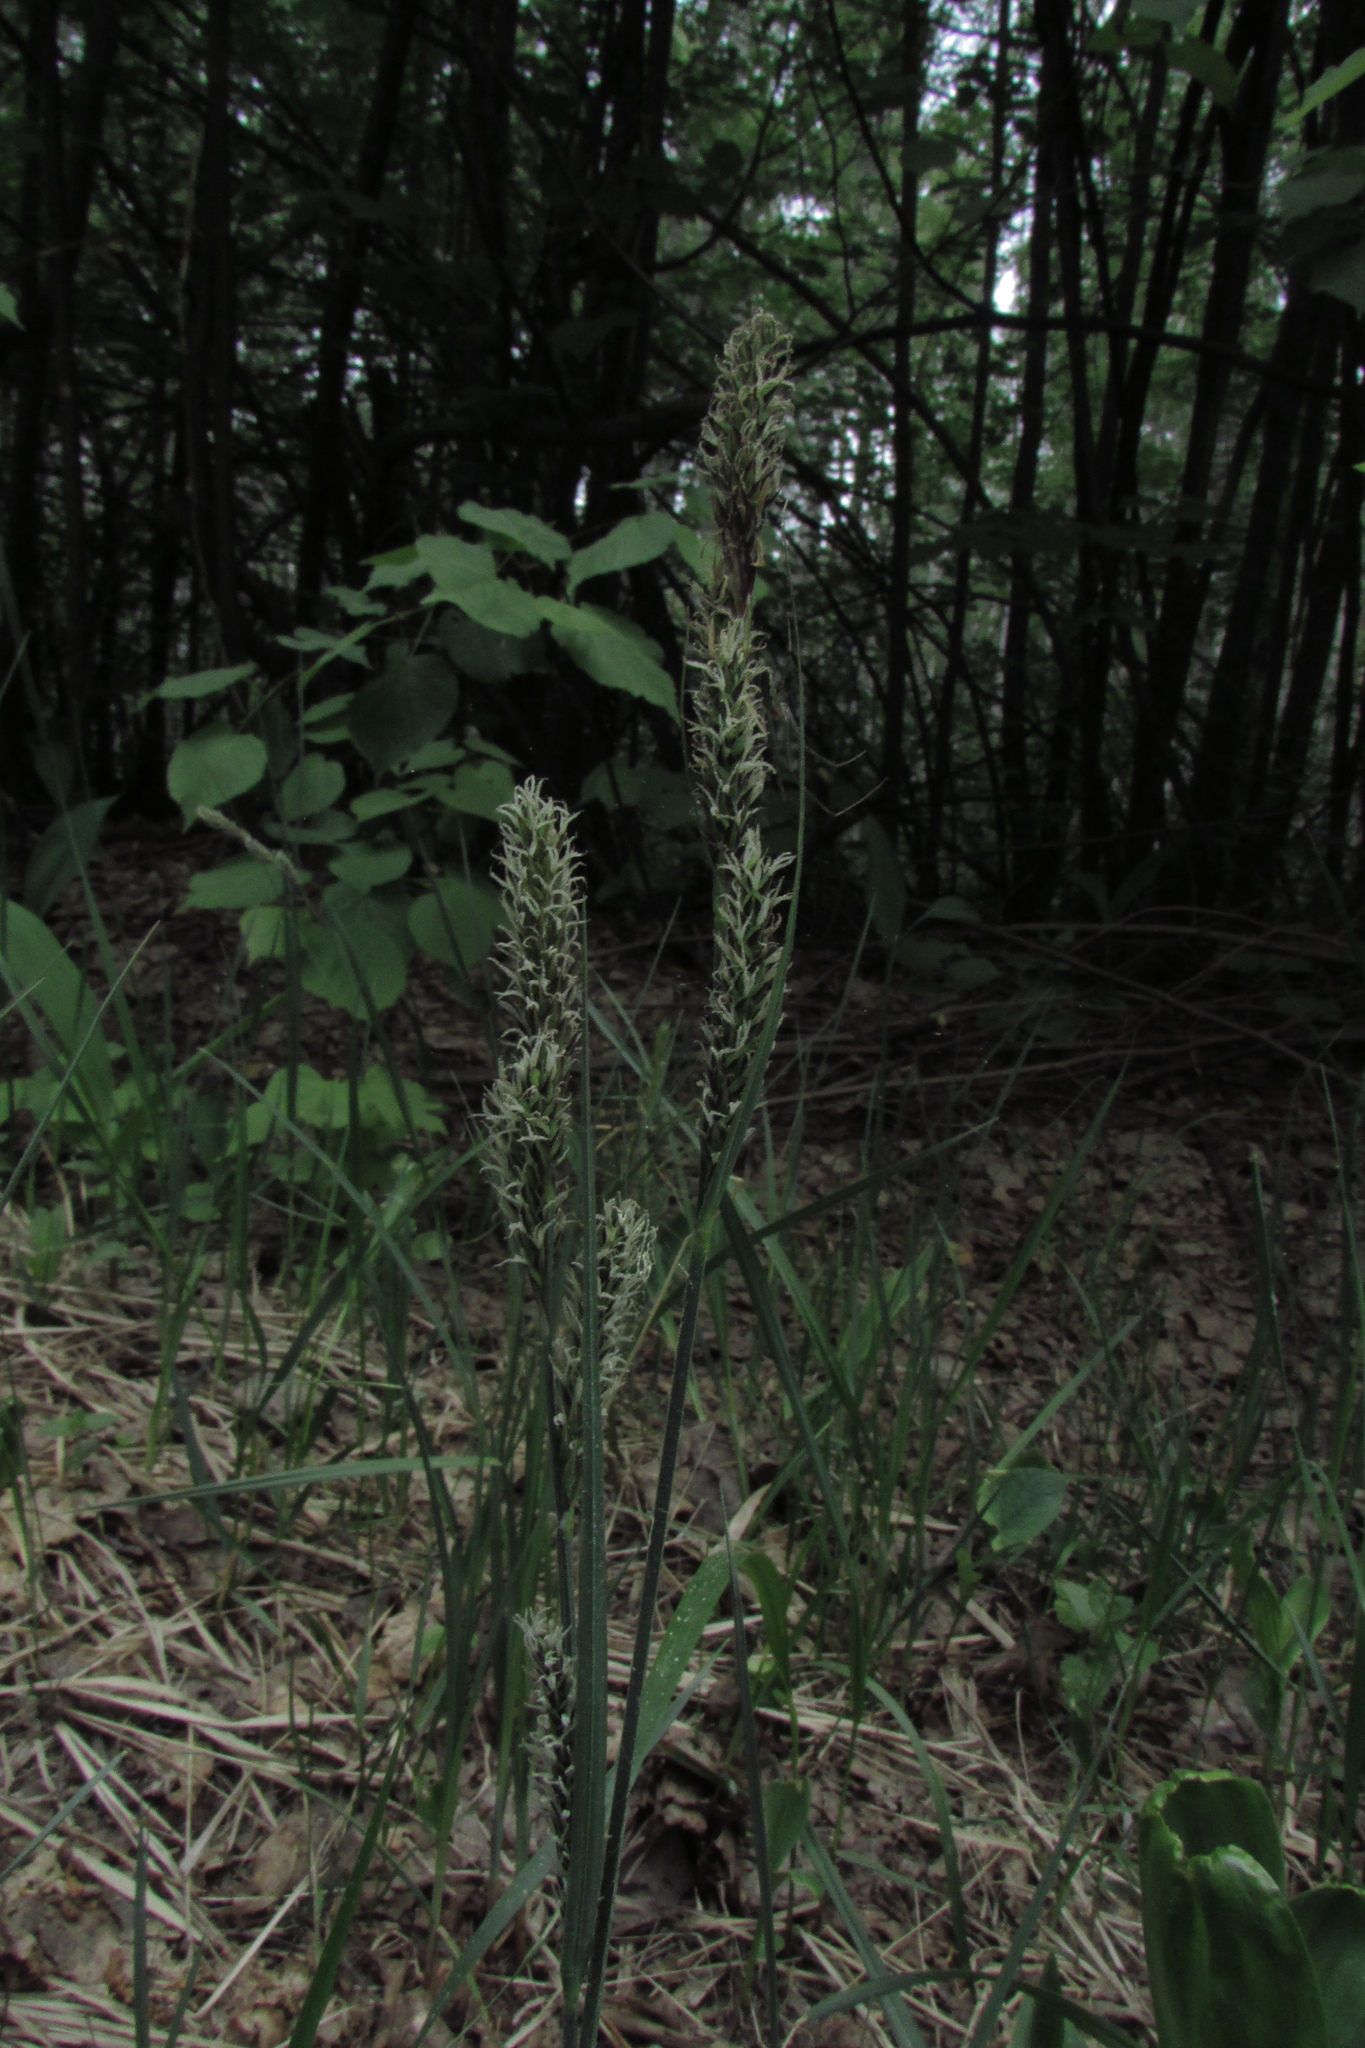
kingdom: Plantae
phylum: Tracheophyta
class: Liliopsida
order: Poales
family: Cyperaceae
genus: Carex
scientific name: Carex hartmaniorum
